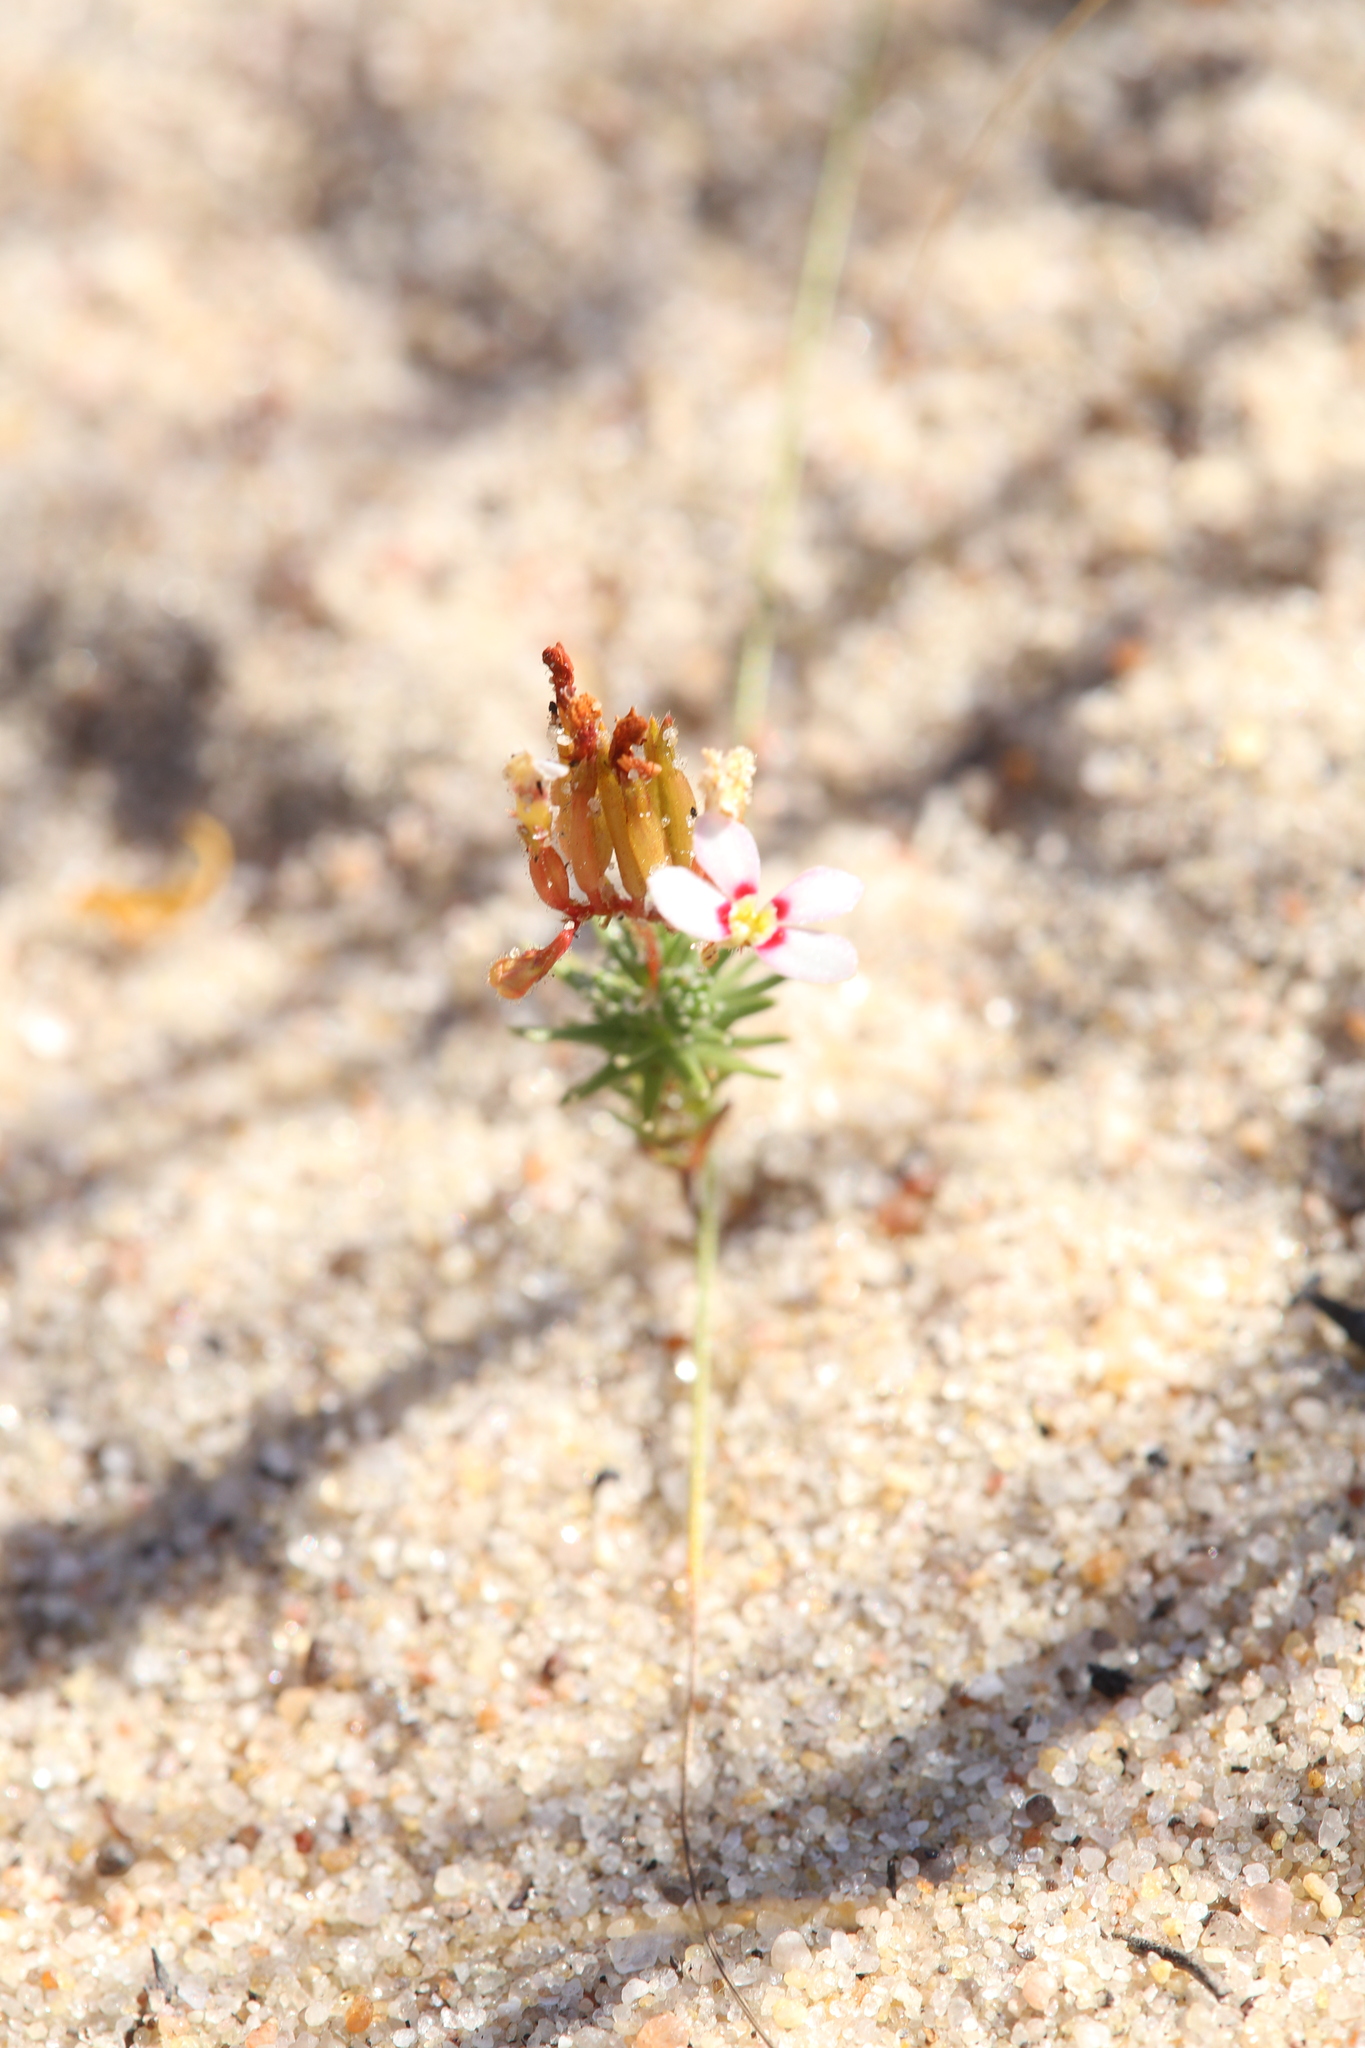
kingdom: Plantae
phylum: Tracheophyta
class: Magnoliopsida
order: Asterales
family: Stylidiaceae
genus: Stylidium
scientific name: Stylidium adpressum
